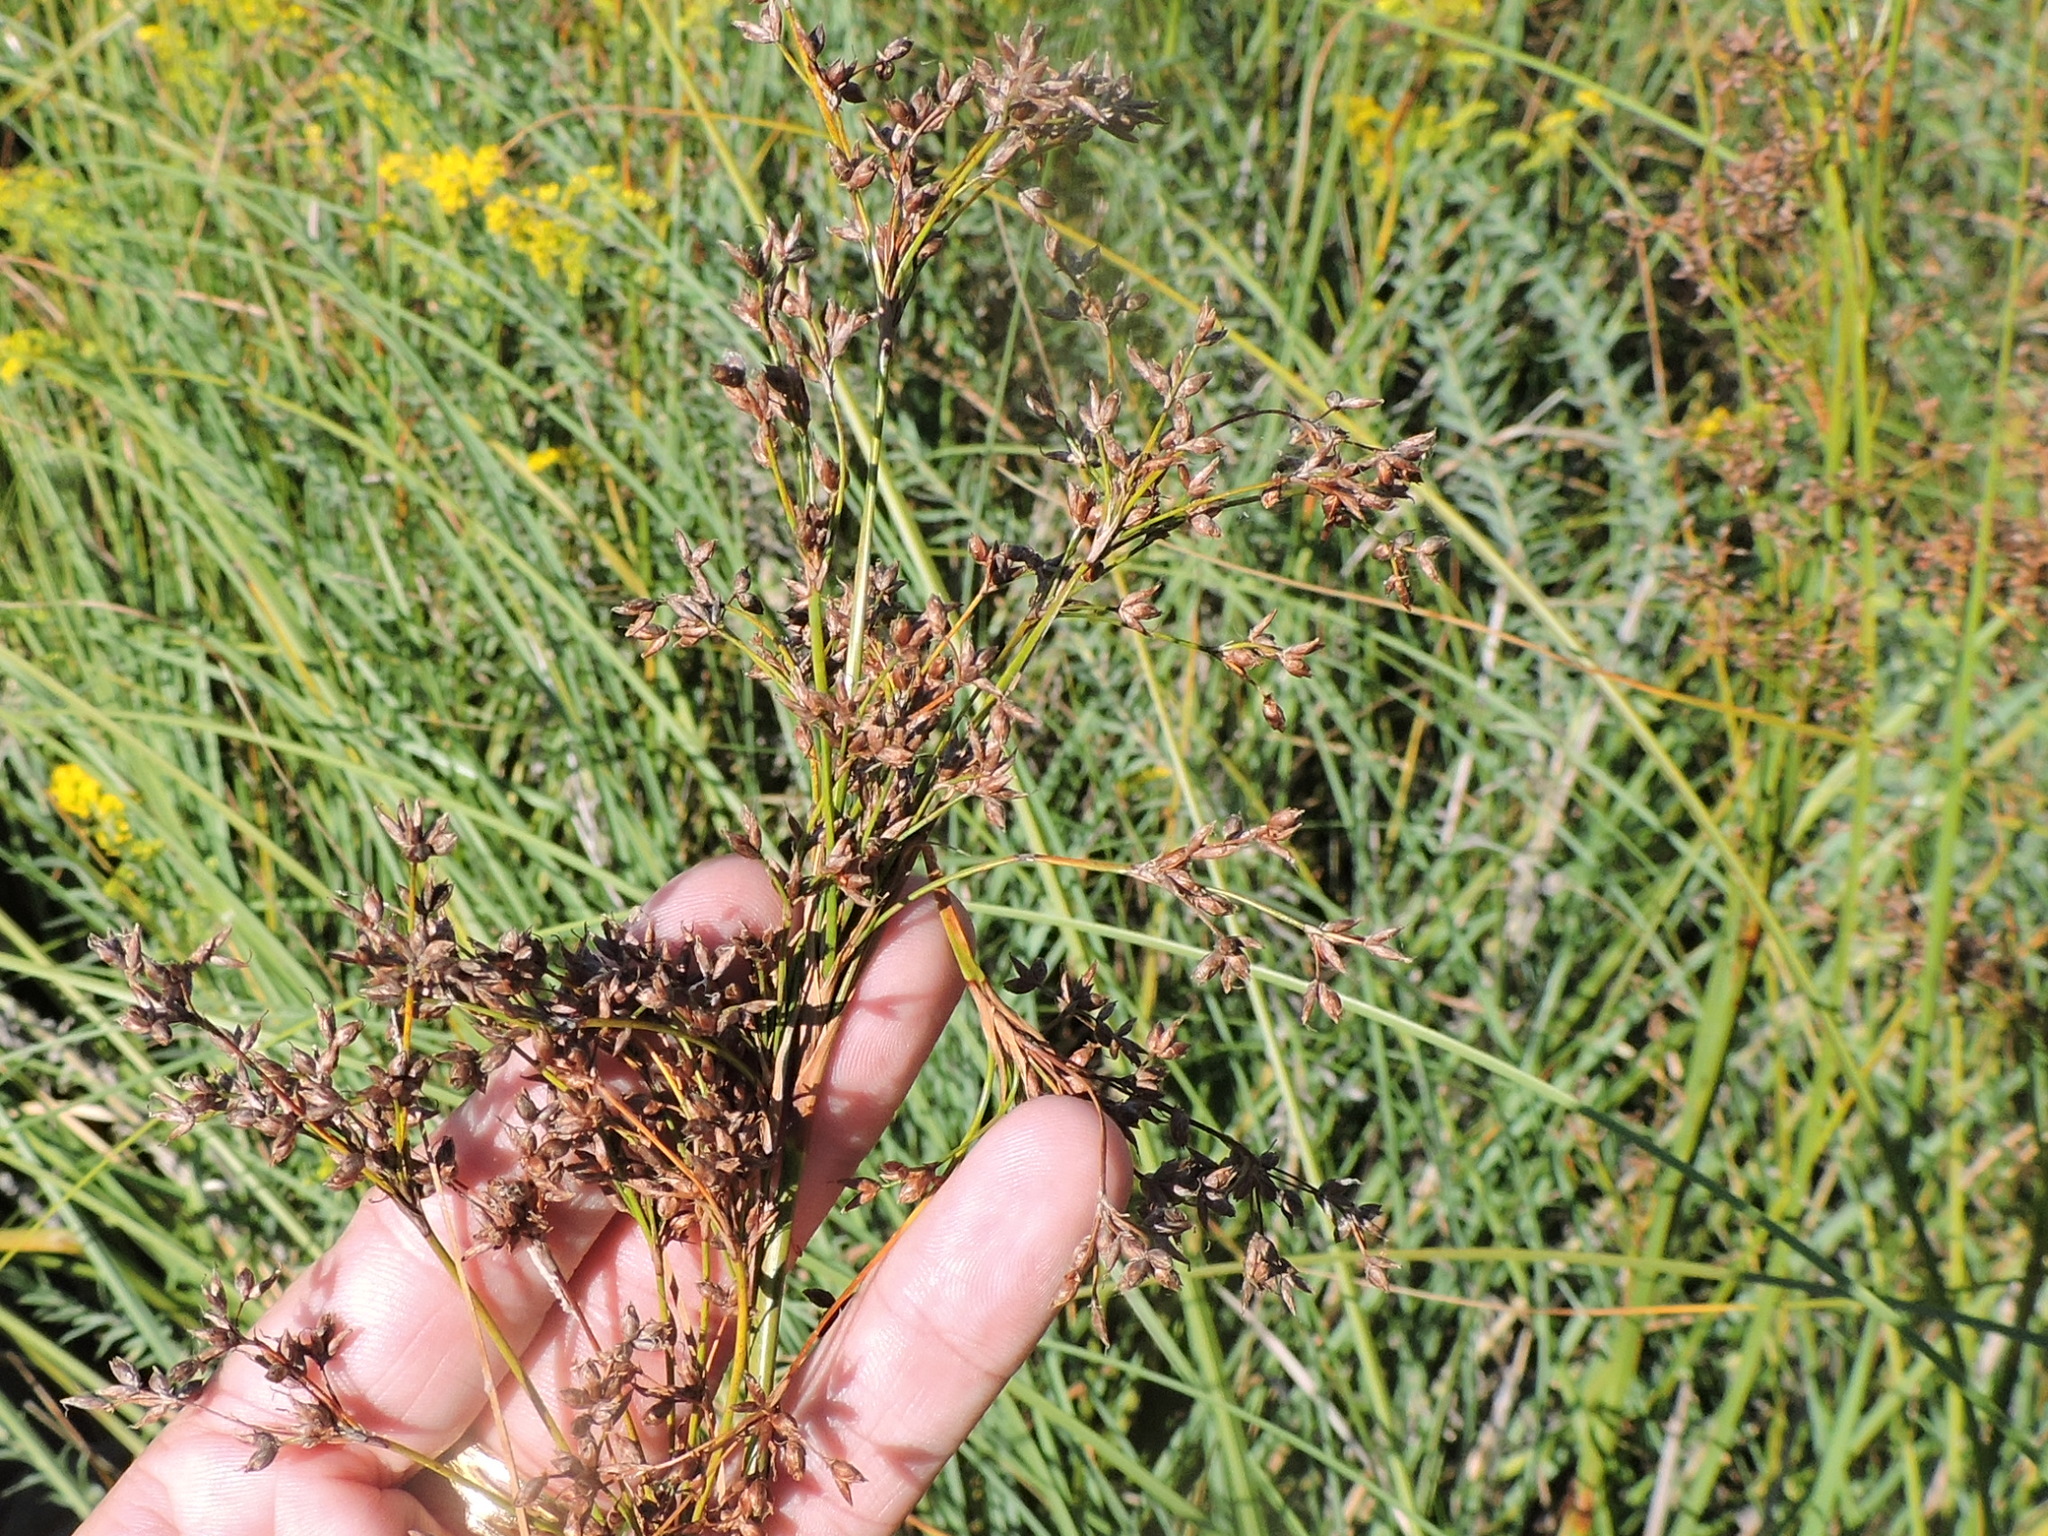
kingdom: Plantae
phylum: Tracheophyta
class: Liliopsida
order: Poales
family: Cyperaceae
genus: Cladium
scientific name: Cladium mariscus
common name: Great fen-sedge
